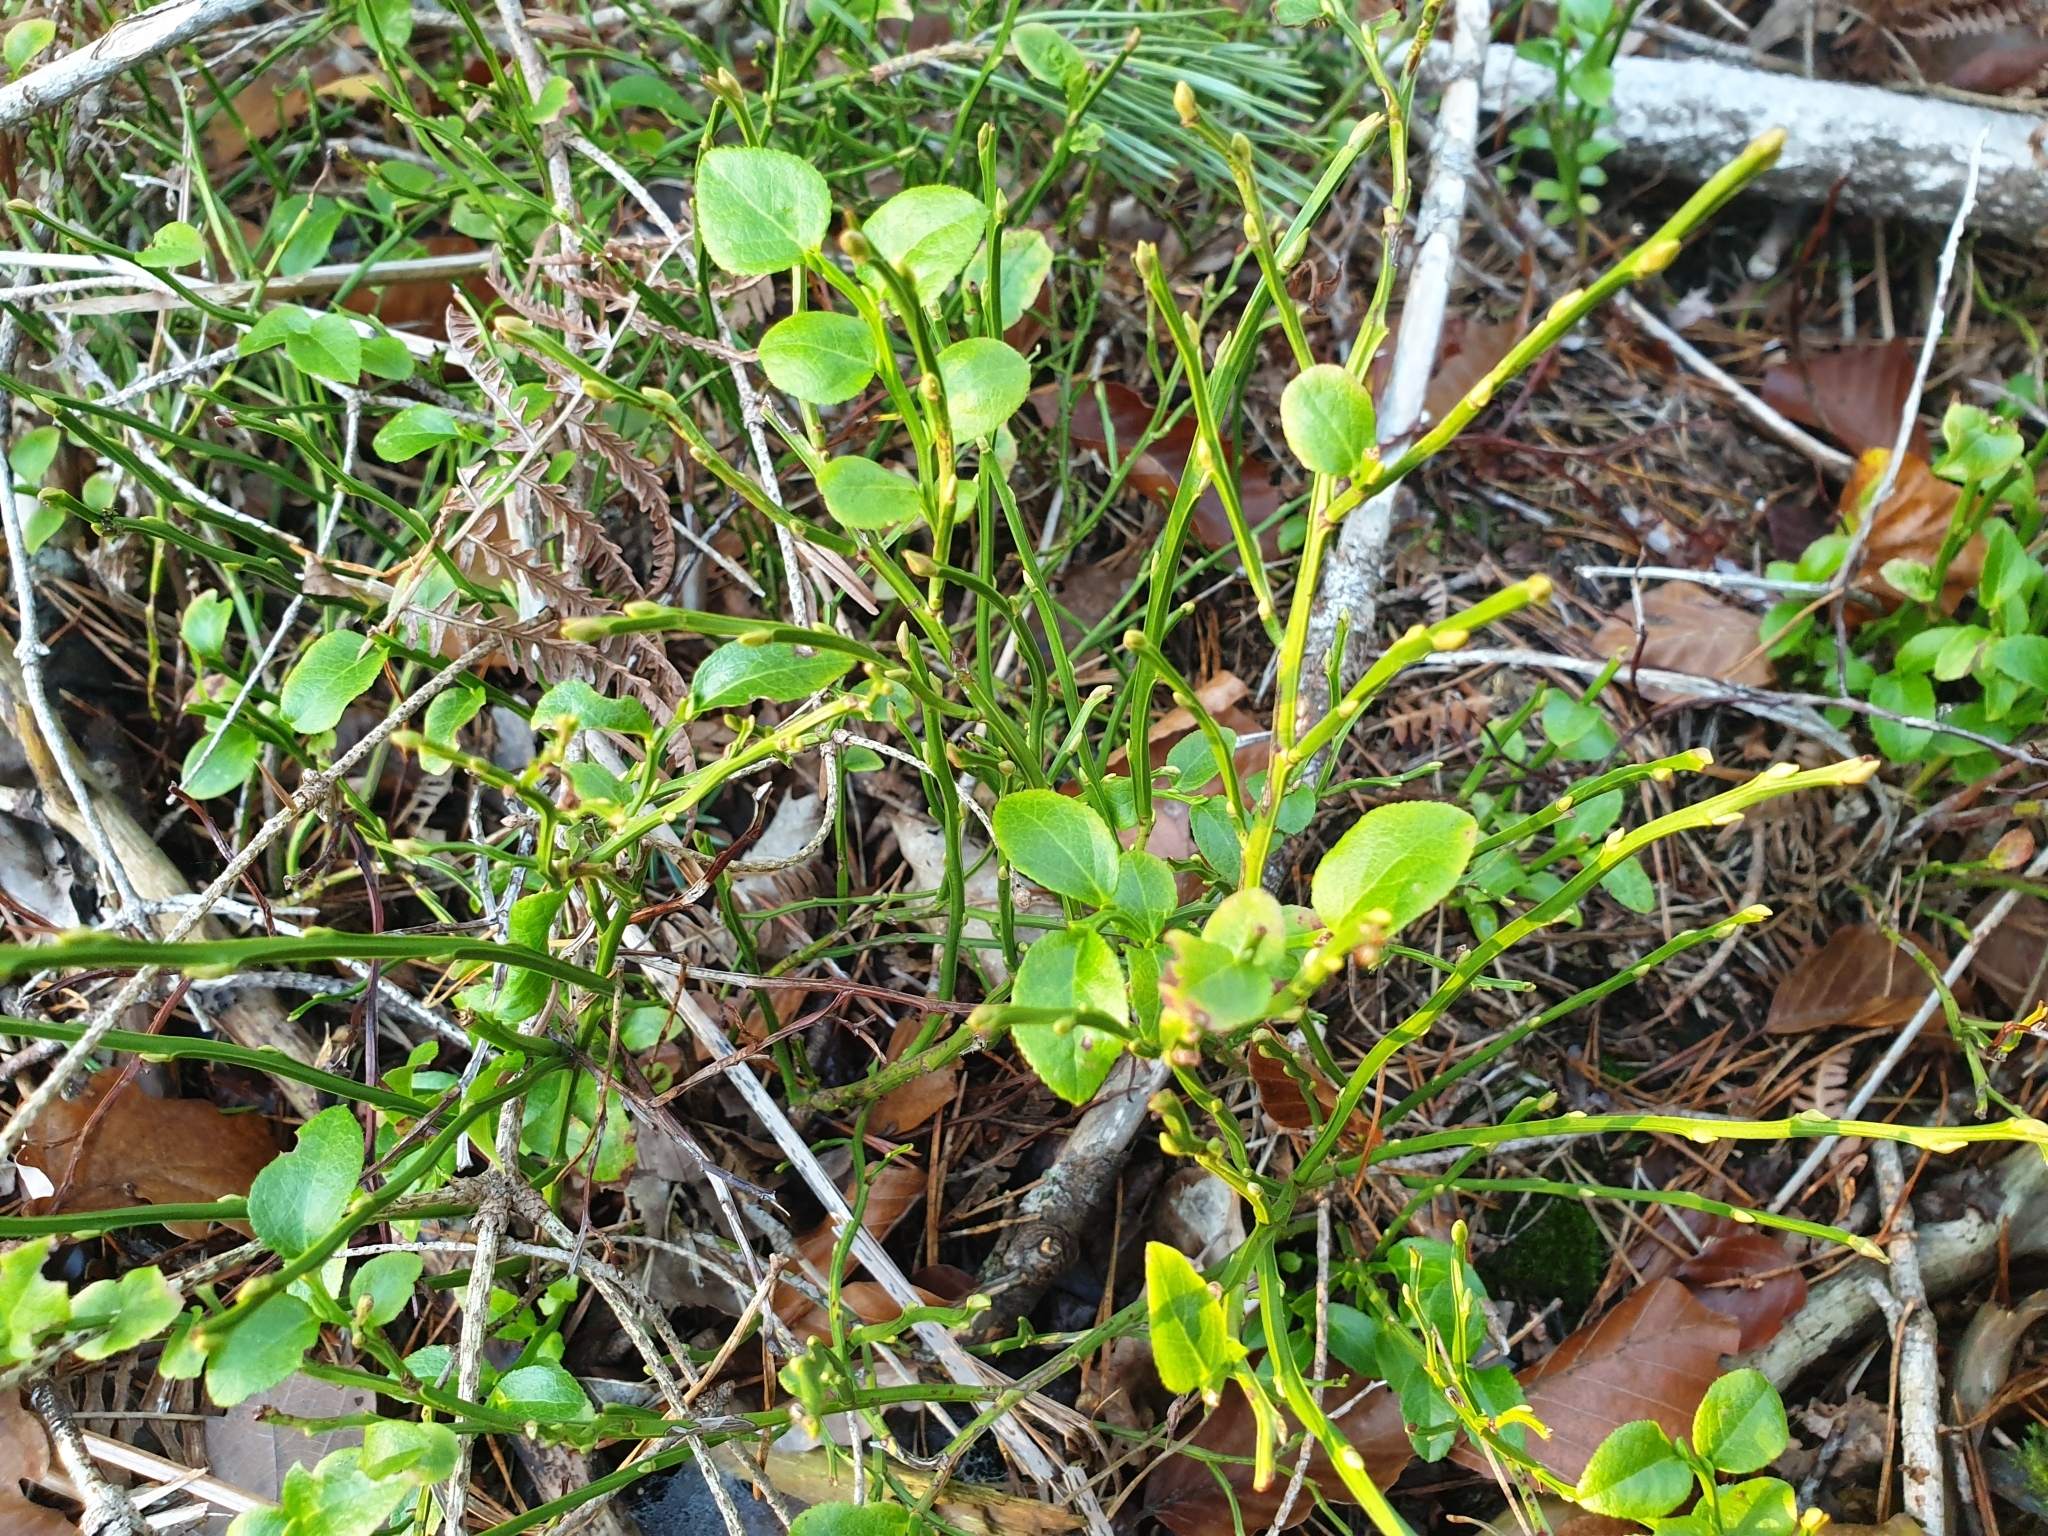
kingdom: Plantae
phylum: Tracheophyta
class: Magnoliopsida
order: Ericales
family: Ericaceae
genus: Vaccinium
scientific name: Vaccinium myrtillus
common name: Bilberry
